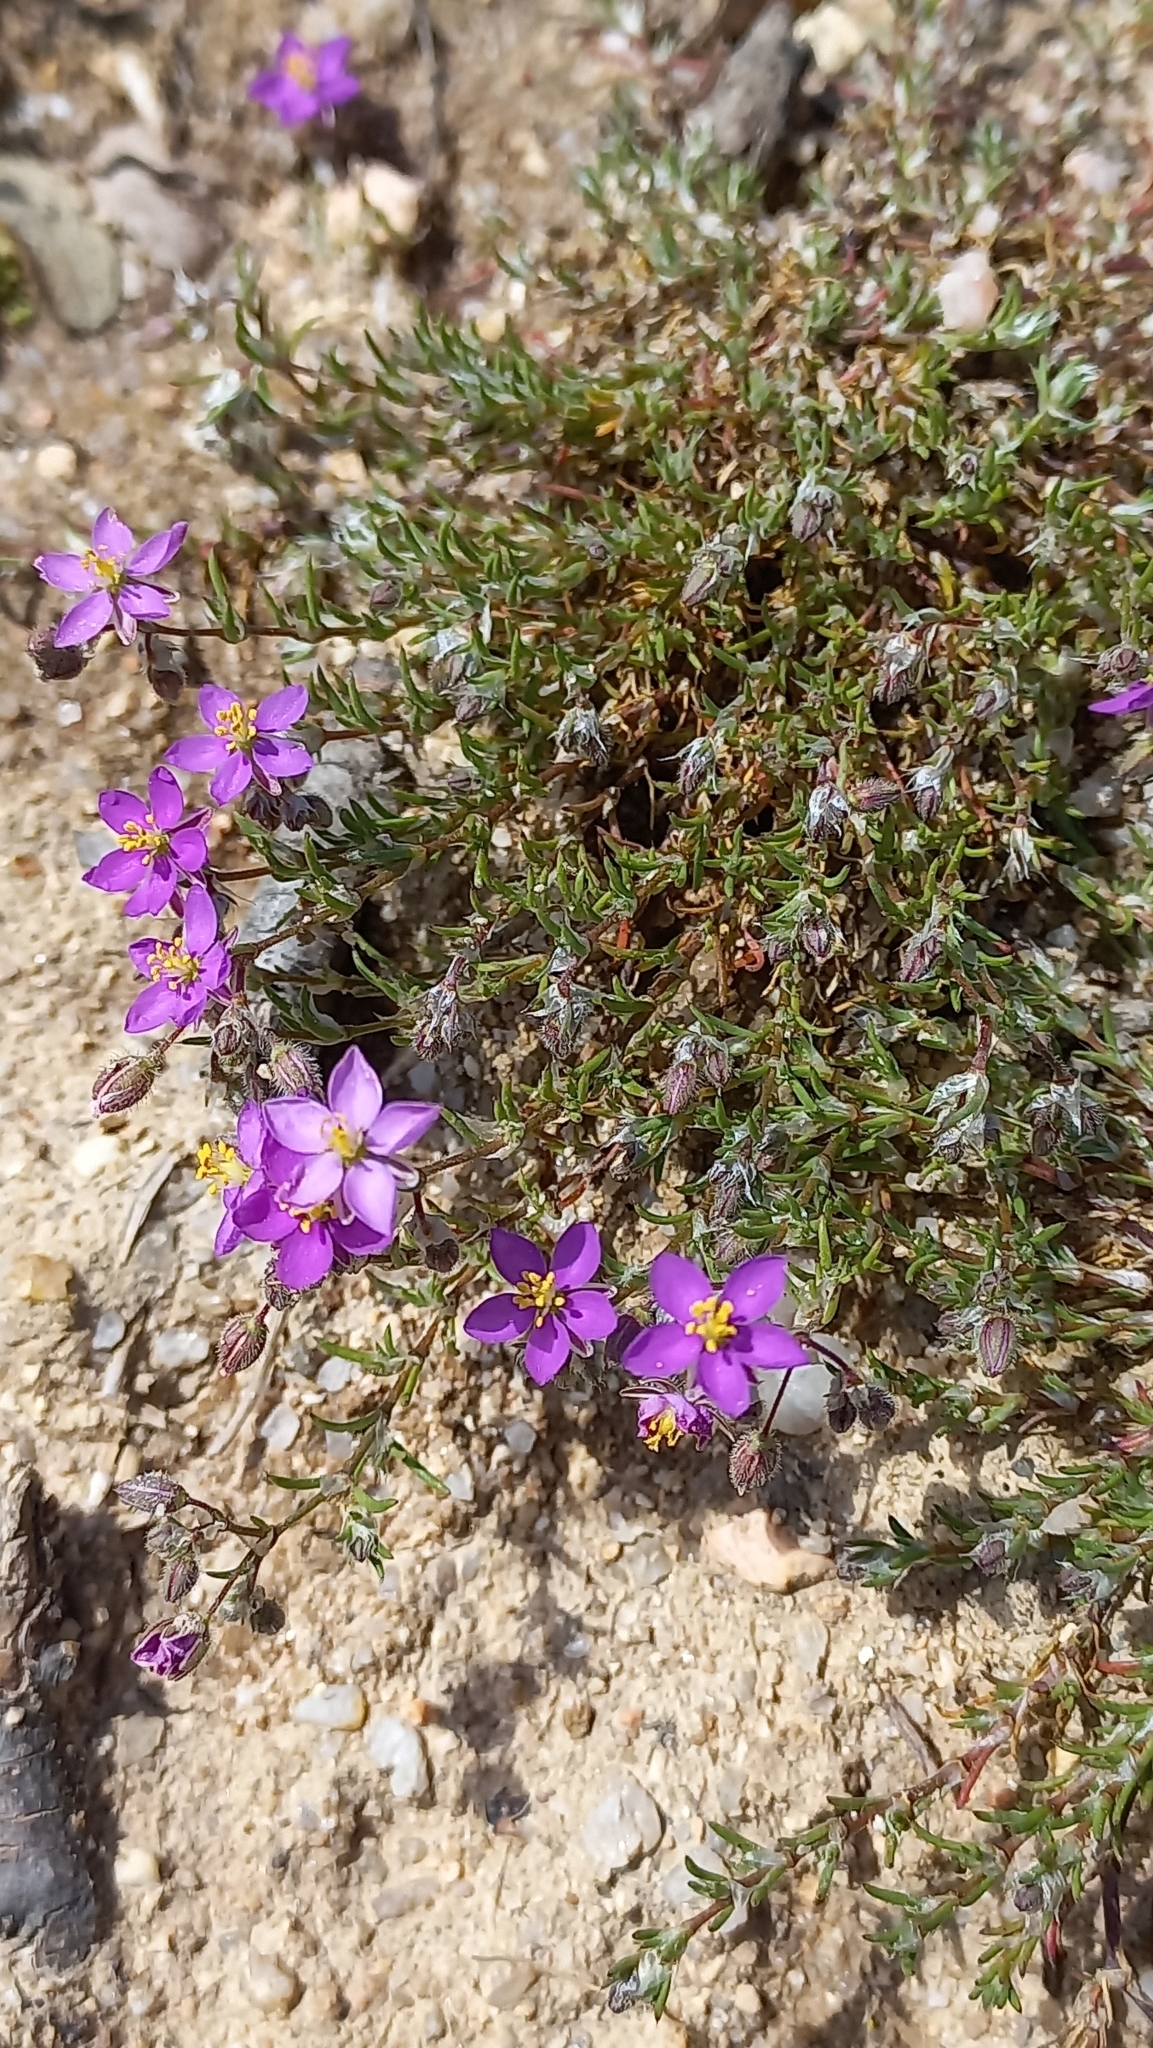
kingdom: Plantae
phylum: Tracheophyta
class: Magnoliopsida
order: Caryophyllales
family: Caryophyllaceae
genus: Spergularia
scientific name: Spergularia purpurea
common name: Purple sandspurry
